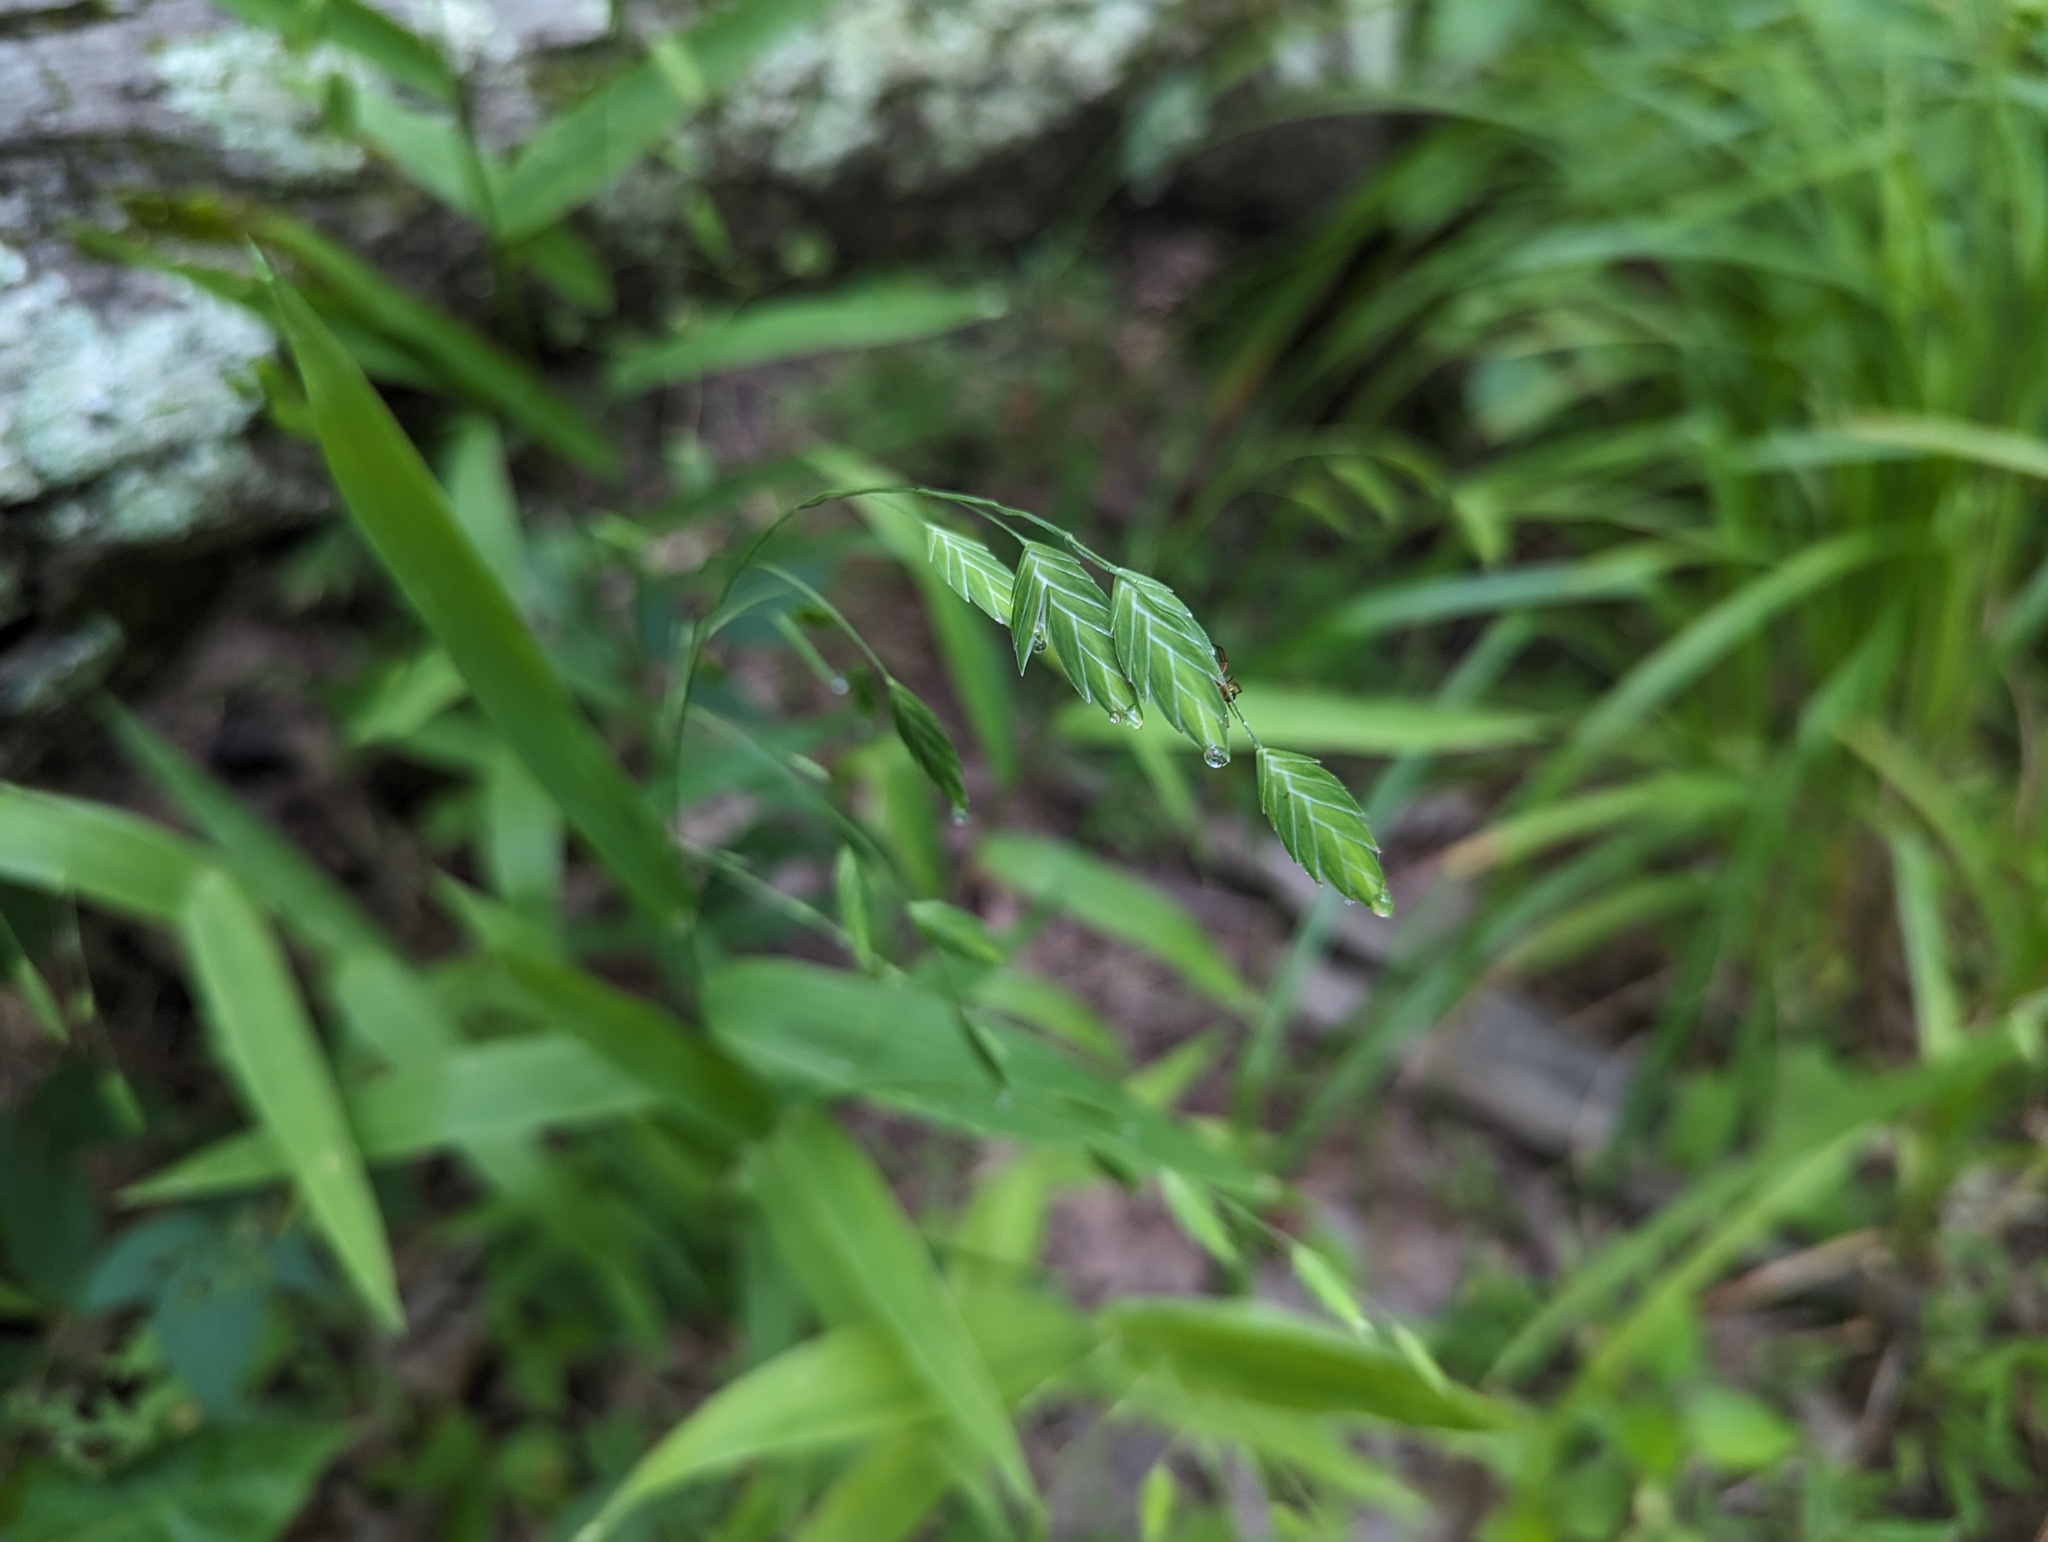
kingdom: Plantae
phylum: Tracheophyta
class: Liliopsida
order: Poales
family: Poaceae
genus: Chasmanthium
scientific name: Chasmanthium latifolium
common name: Broad-leaved chasmanthium
